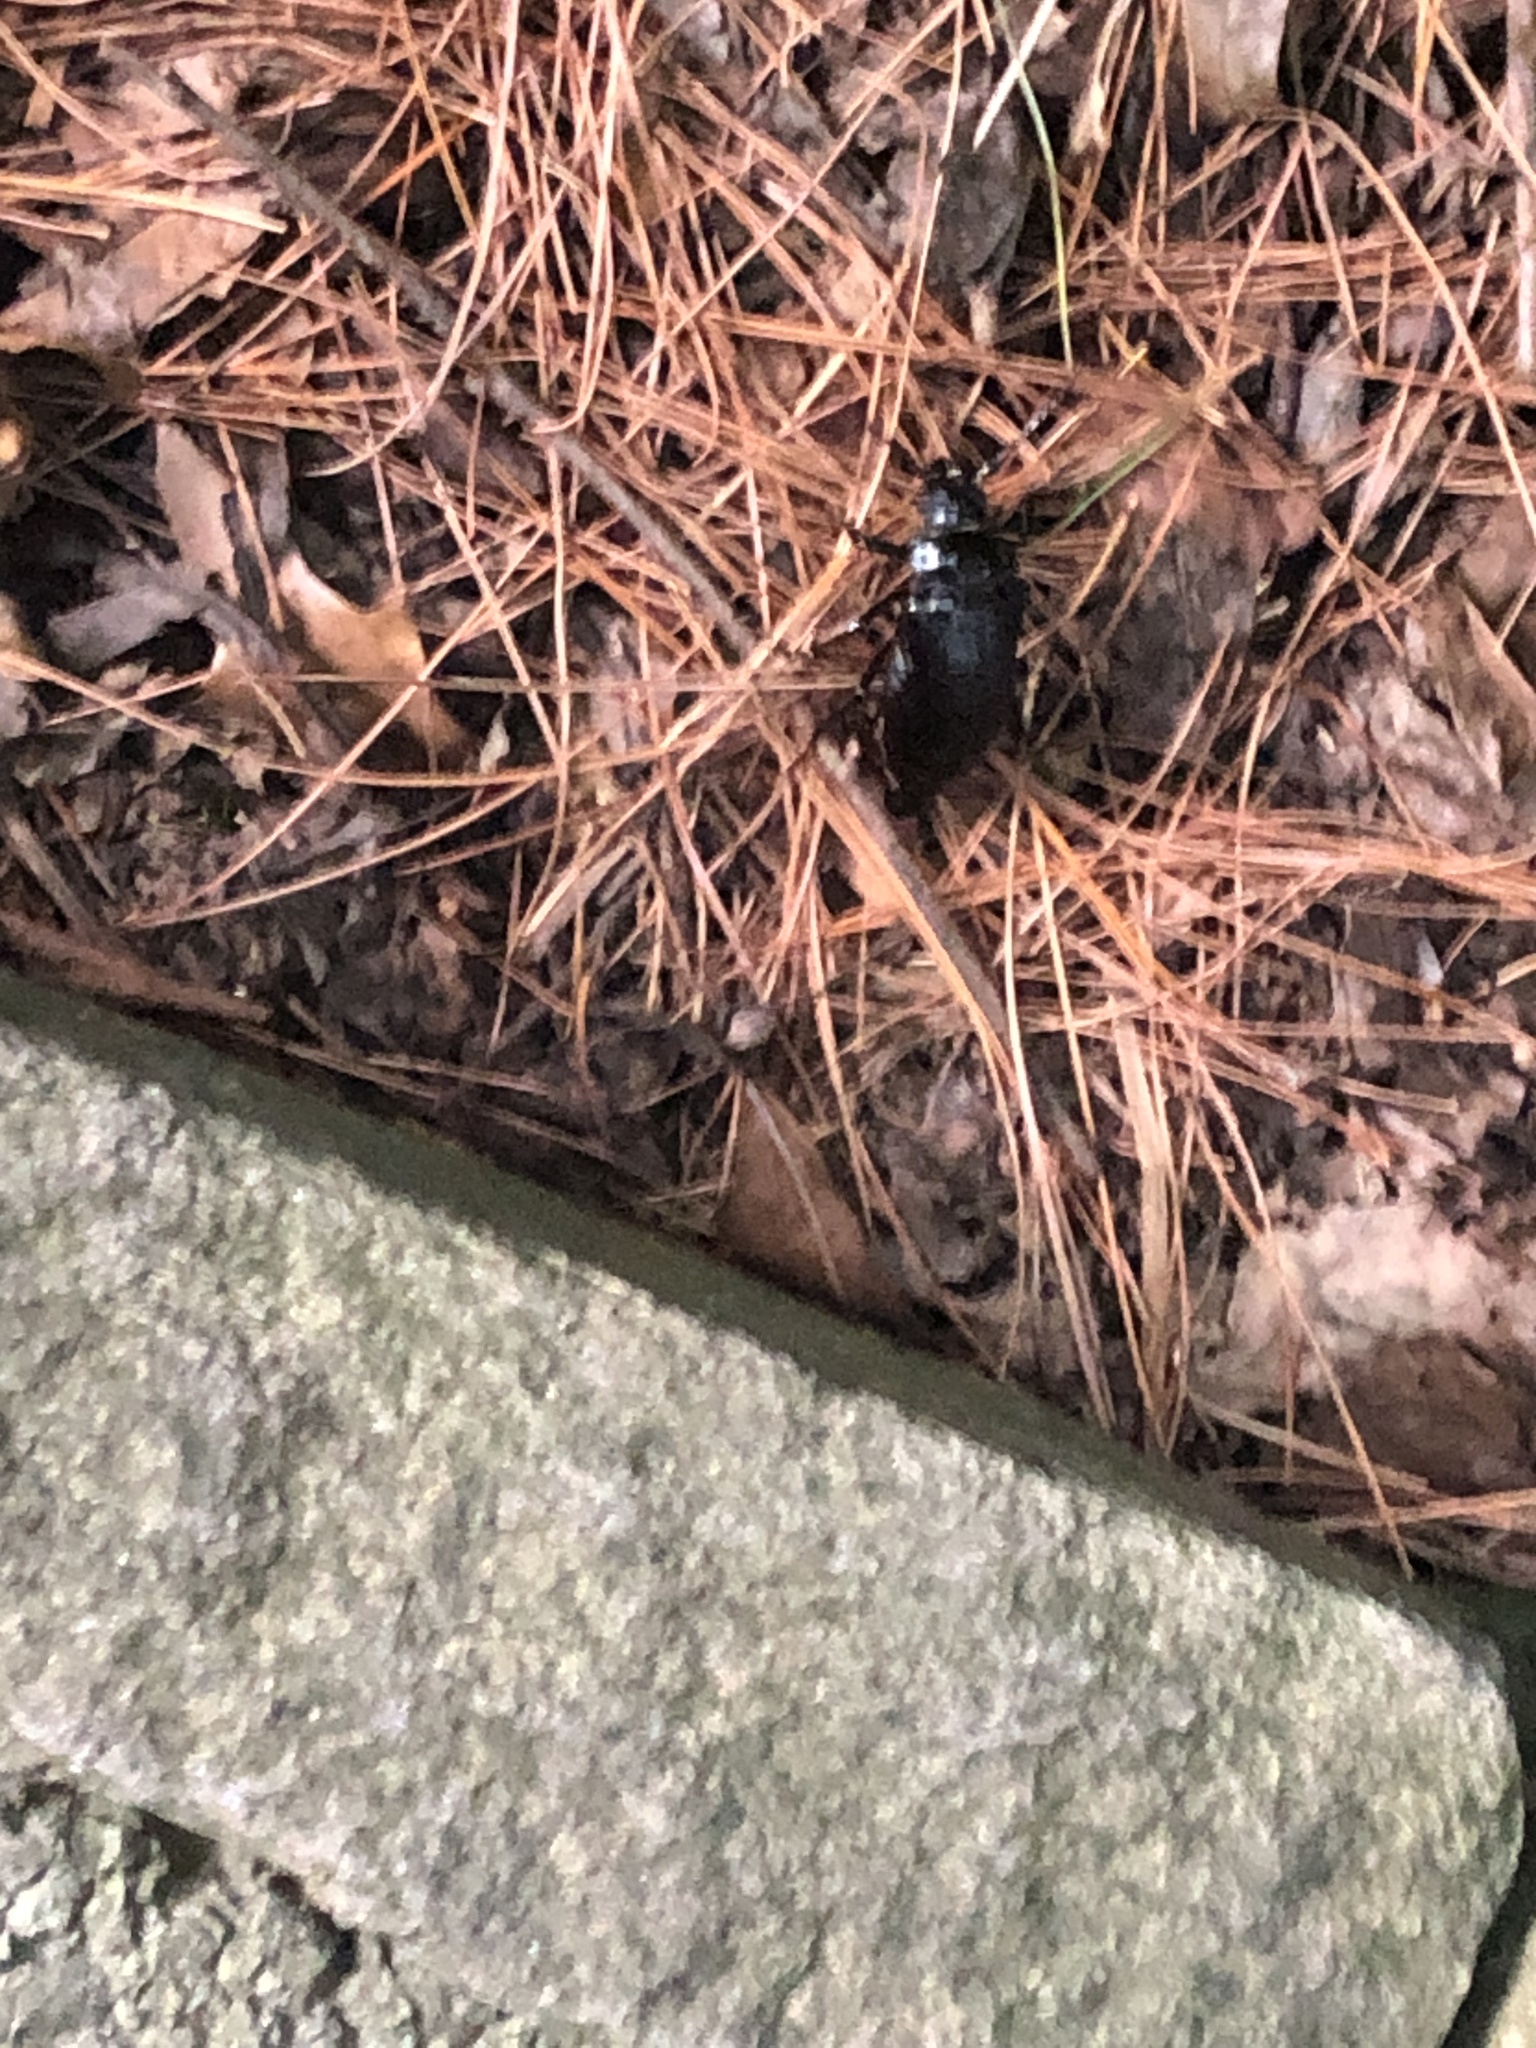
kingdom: Animalia
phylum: Arthropoda
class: Insecta
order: Coleoptera
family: Cerambycidae
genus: Prionus
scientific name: Prionus laticollis
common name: Broad necked prionus
